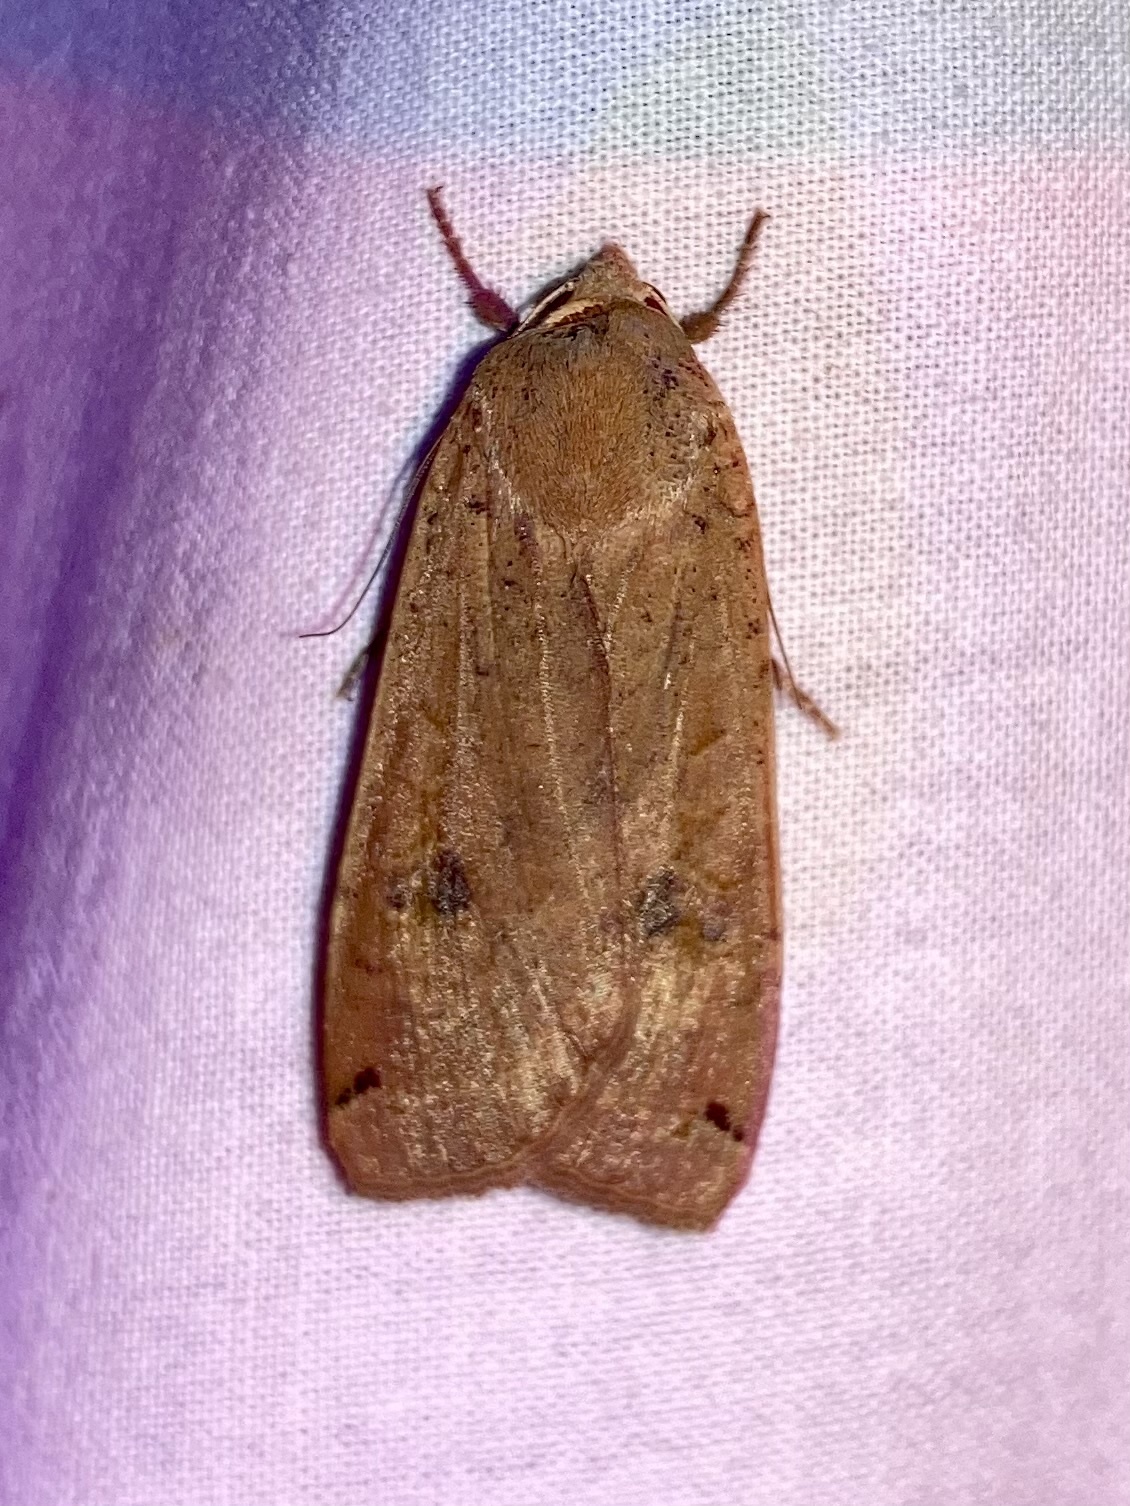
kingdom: Animalia
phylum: Arthropoda
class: Insecta
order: Lepidoptera
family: Noctuidae
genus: Noctua
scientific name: Noctua pronuba
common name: Large yellow underwing
